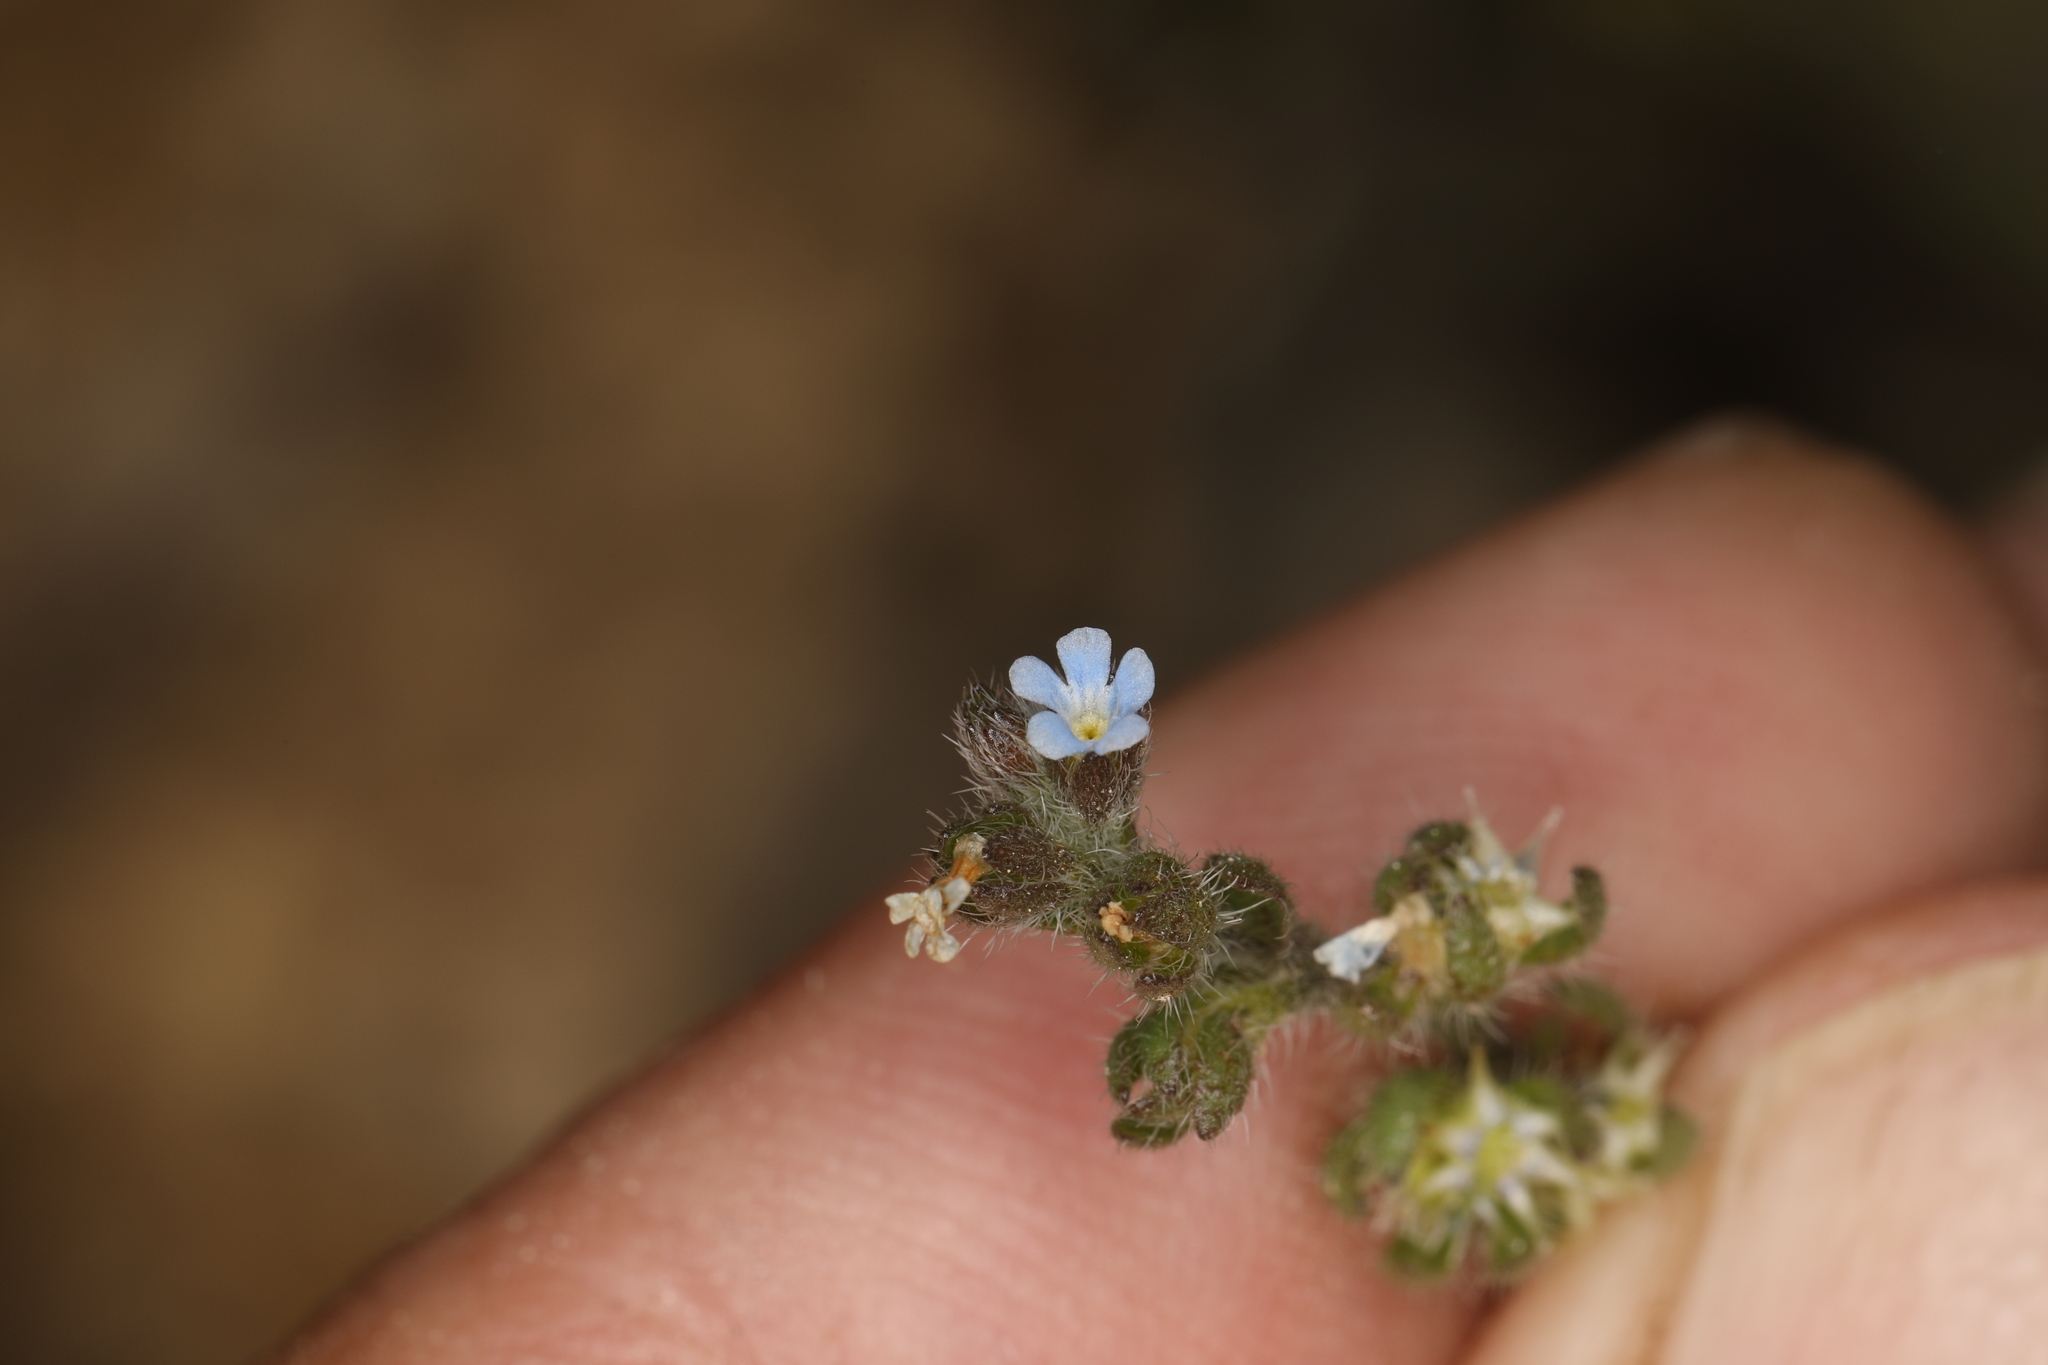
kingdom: Plantae
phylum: Tracheophyta
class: Magnoliopsida
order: Boraginales
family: Boraginaceae
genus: Lappula
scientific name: Lappula occidentalis
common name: Western stickseed
